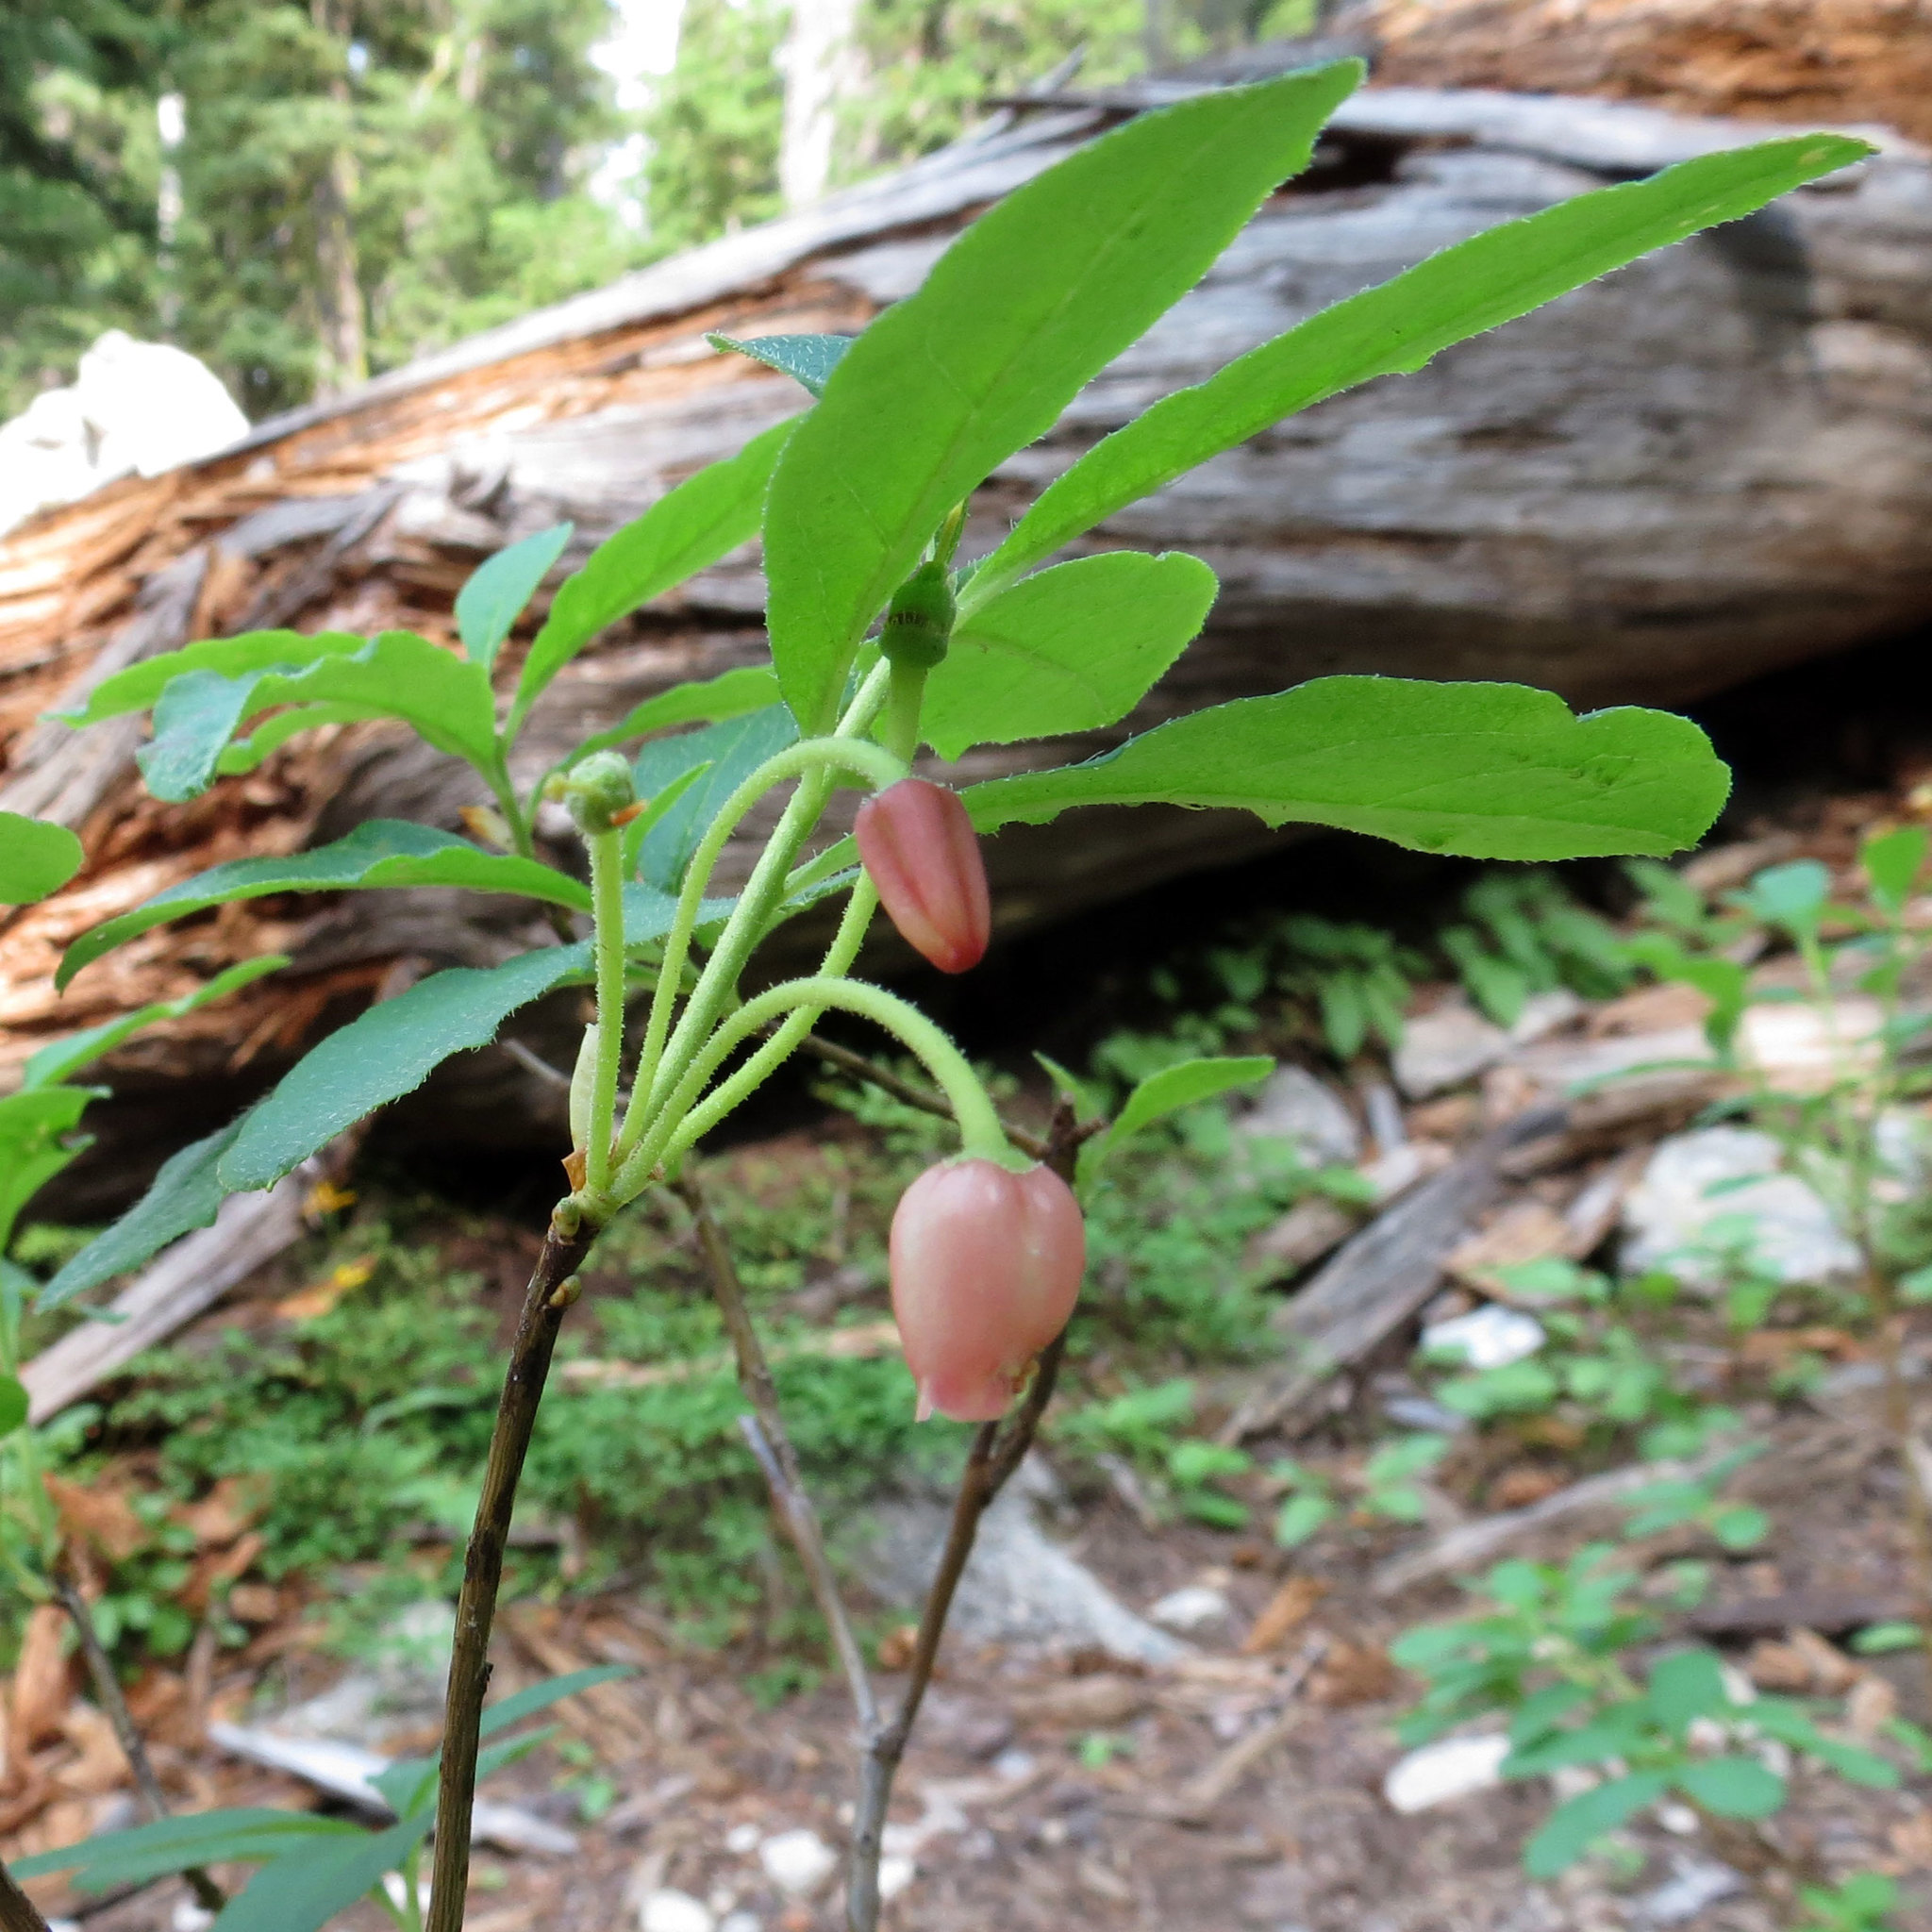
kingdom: Plantae
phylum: Tracheophyta
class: Magnoliopsida
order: Ericales
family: Ericaceae
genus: Rhododendron
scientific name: Rhododendron menziesii
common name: Pacific menziesia
